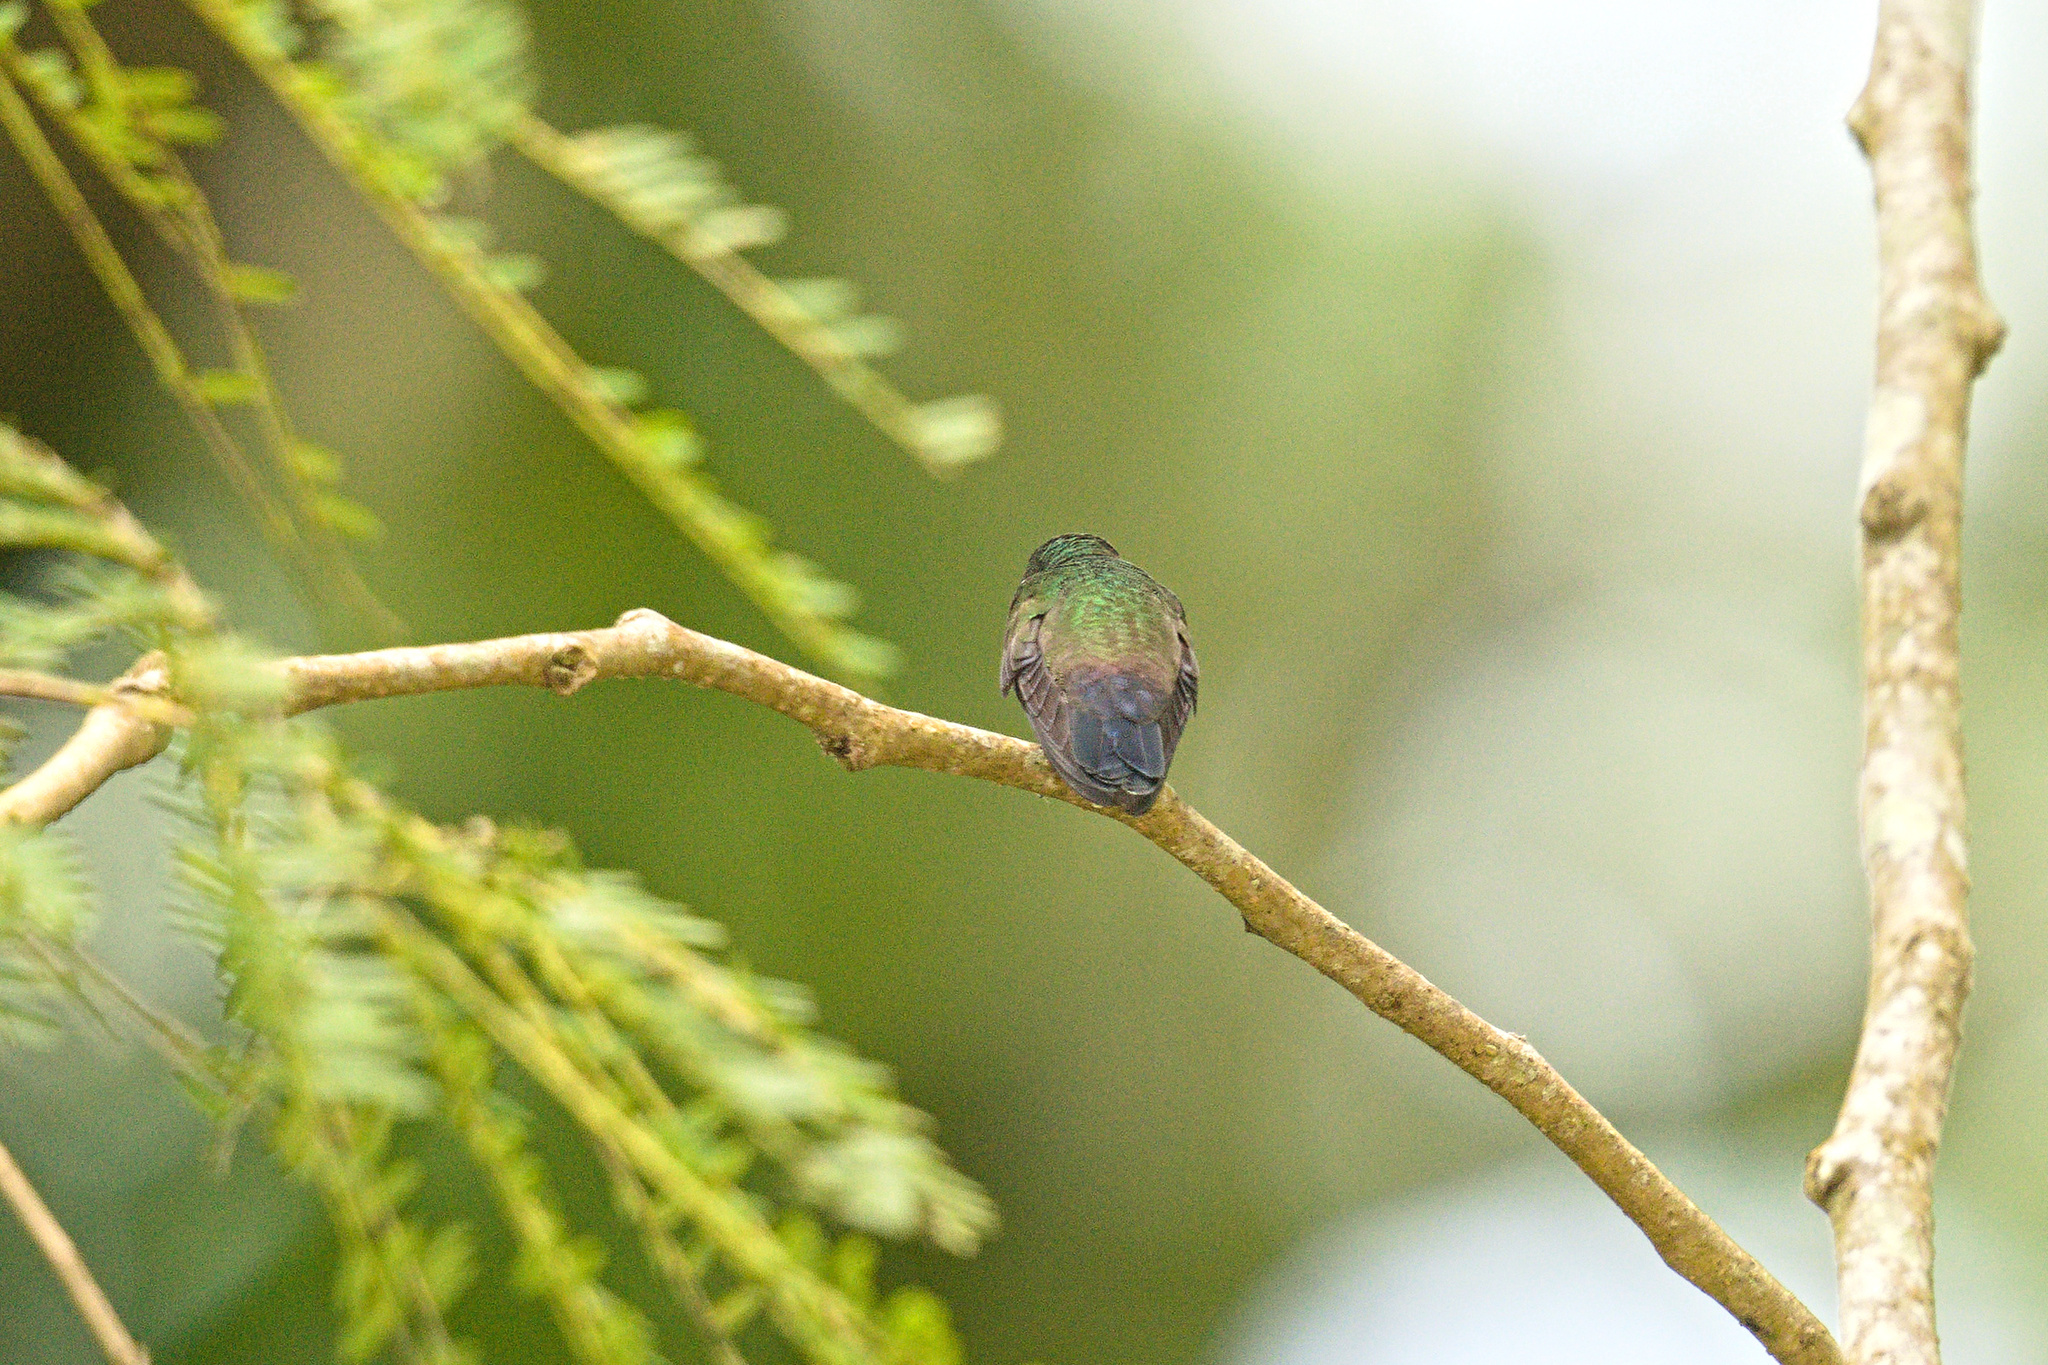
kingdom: Animalia
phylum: Chordata
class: Aves
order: Apodiformes
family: Trochilidae
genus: Saucerottia
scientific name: Saucerottia hoffmanni
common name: Blue-vented hummingbird
